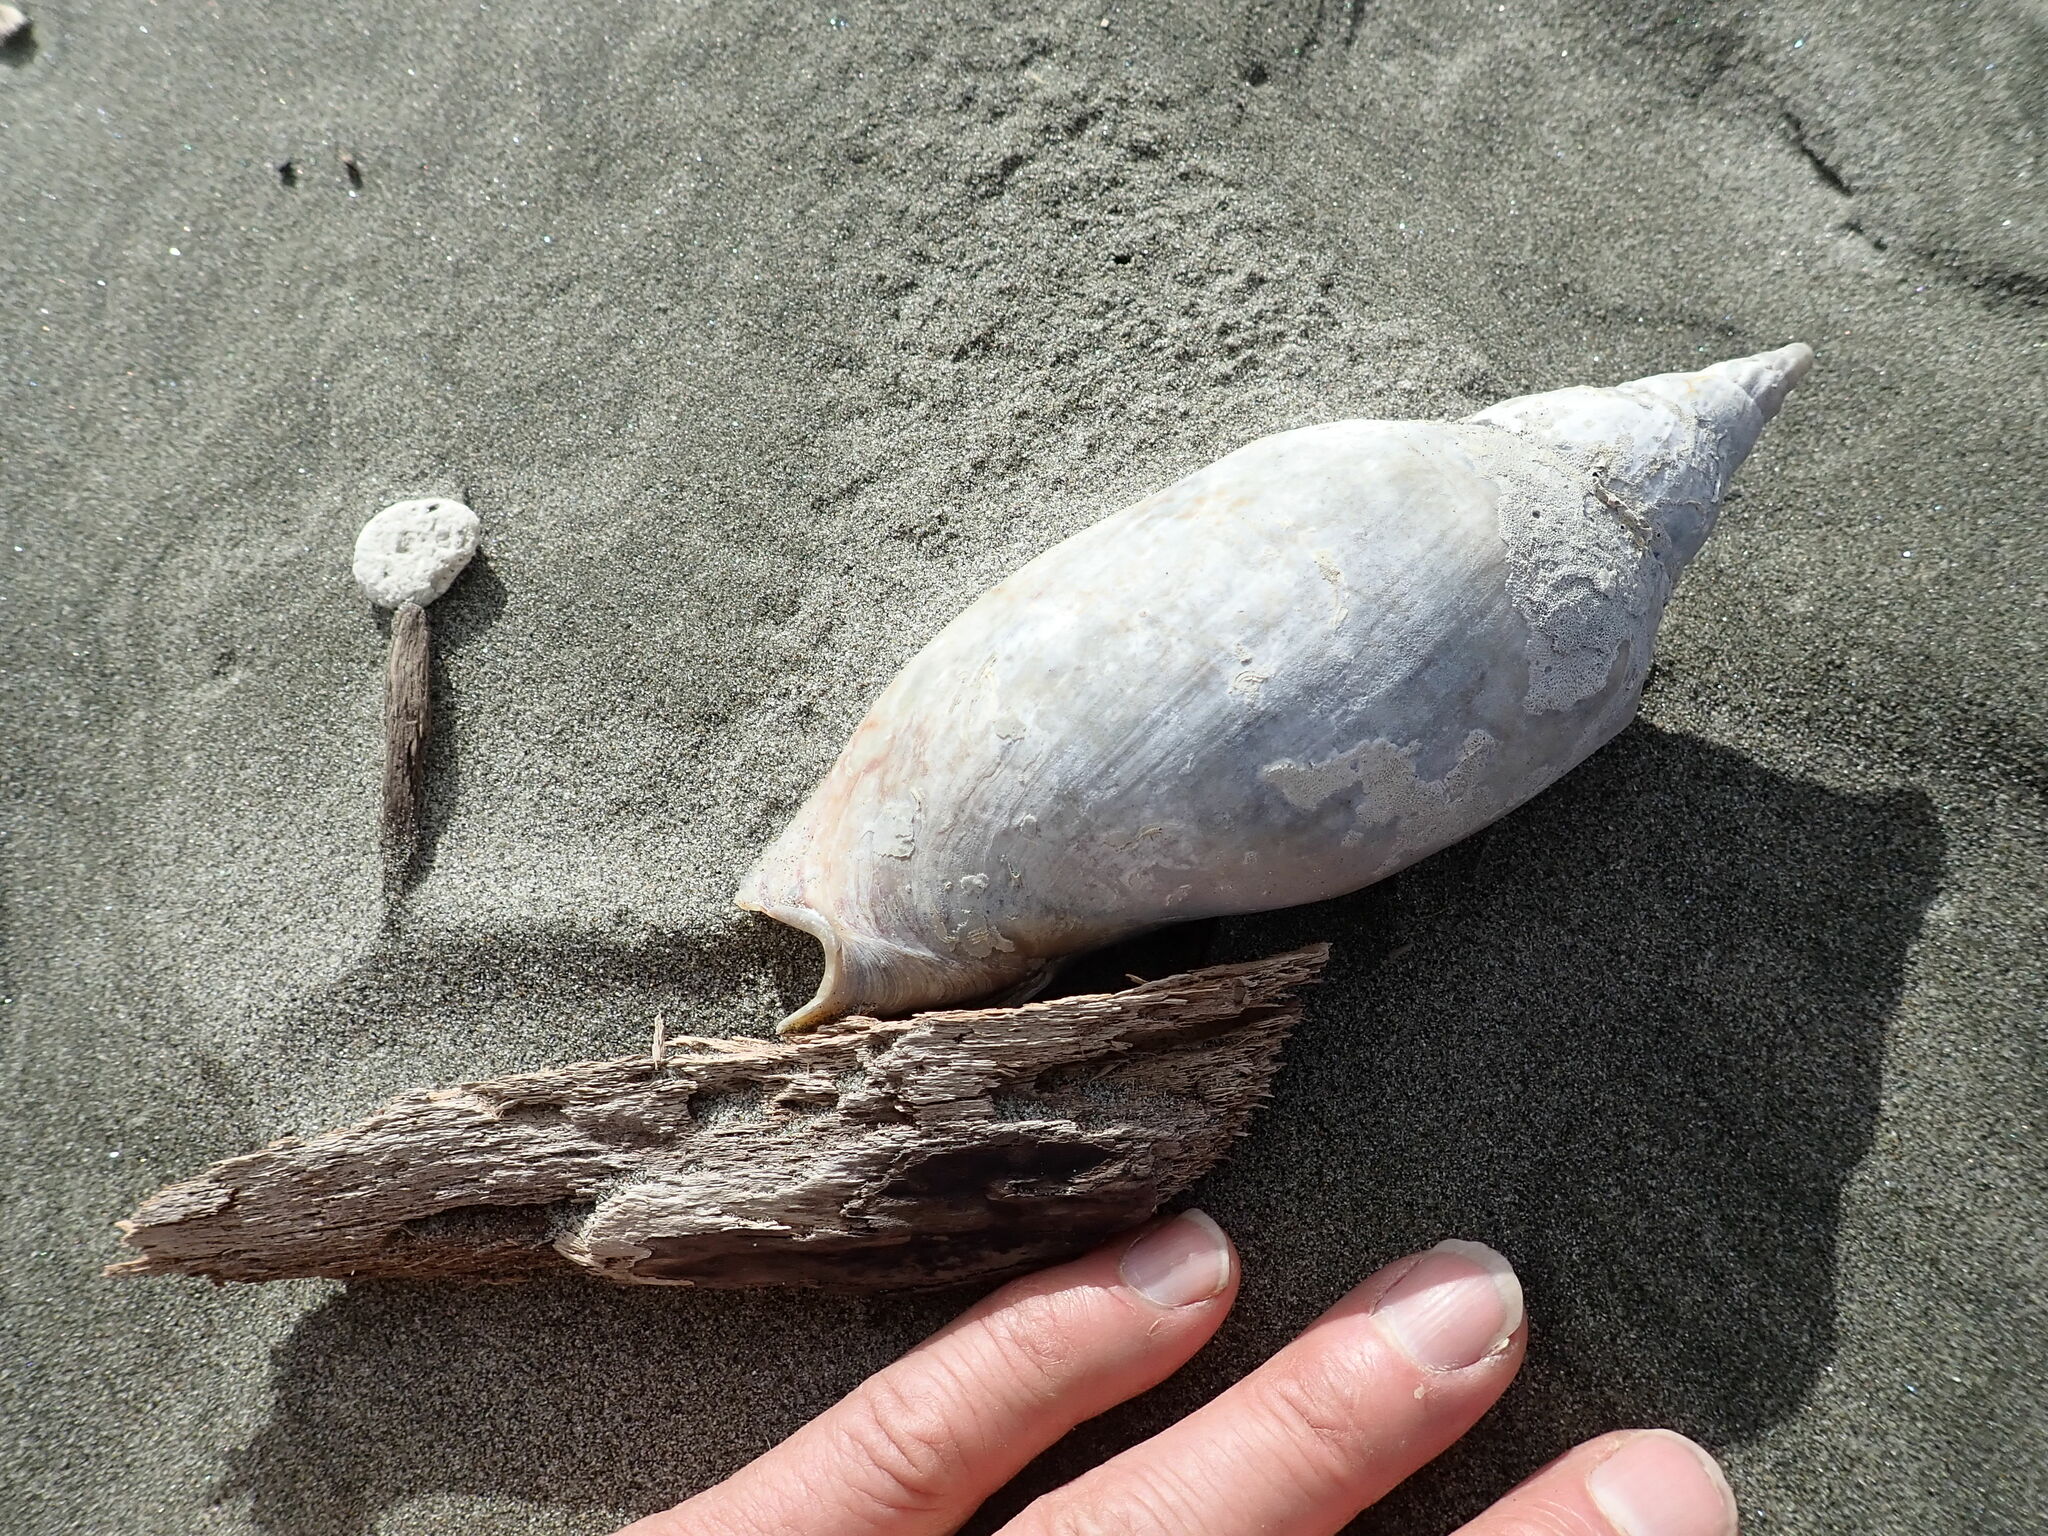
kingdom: Animalia
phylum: Mollusca
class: Gastropoda
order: Neogastropoda
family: Volutidae
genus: Alcithoe
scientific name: Alcithoe arabica
